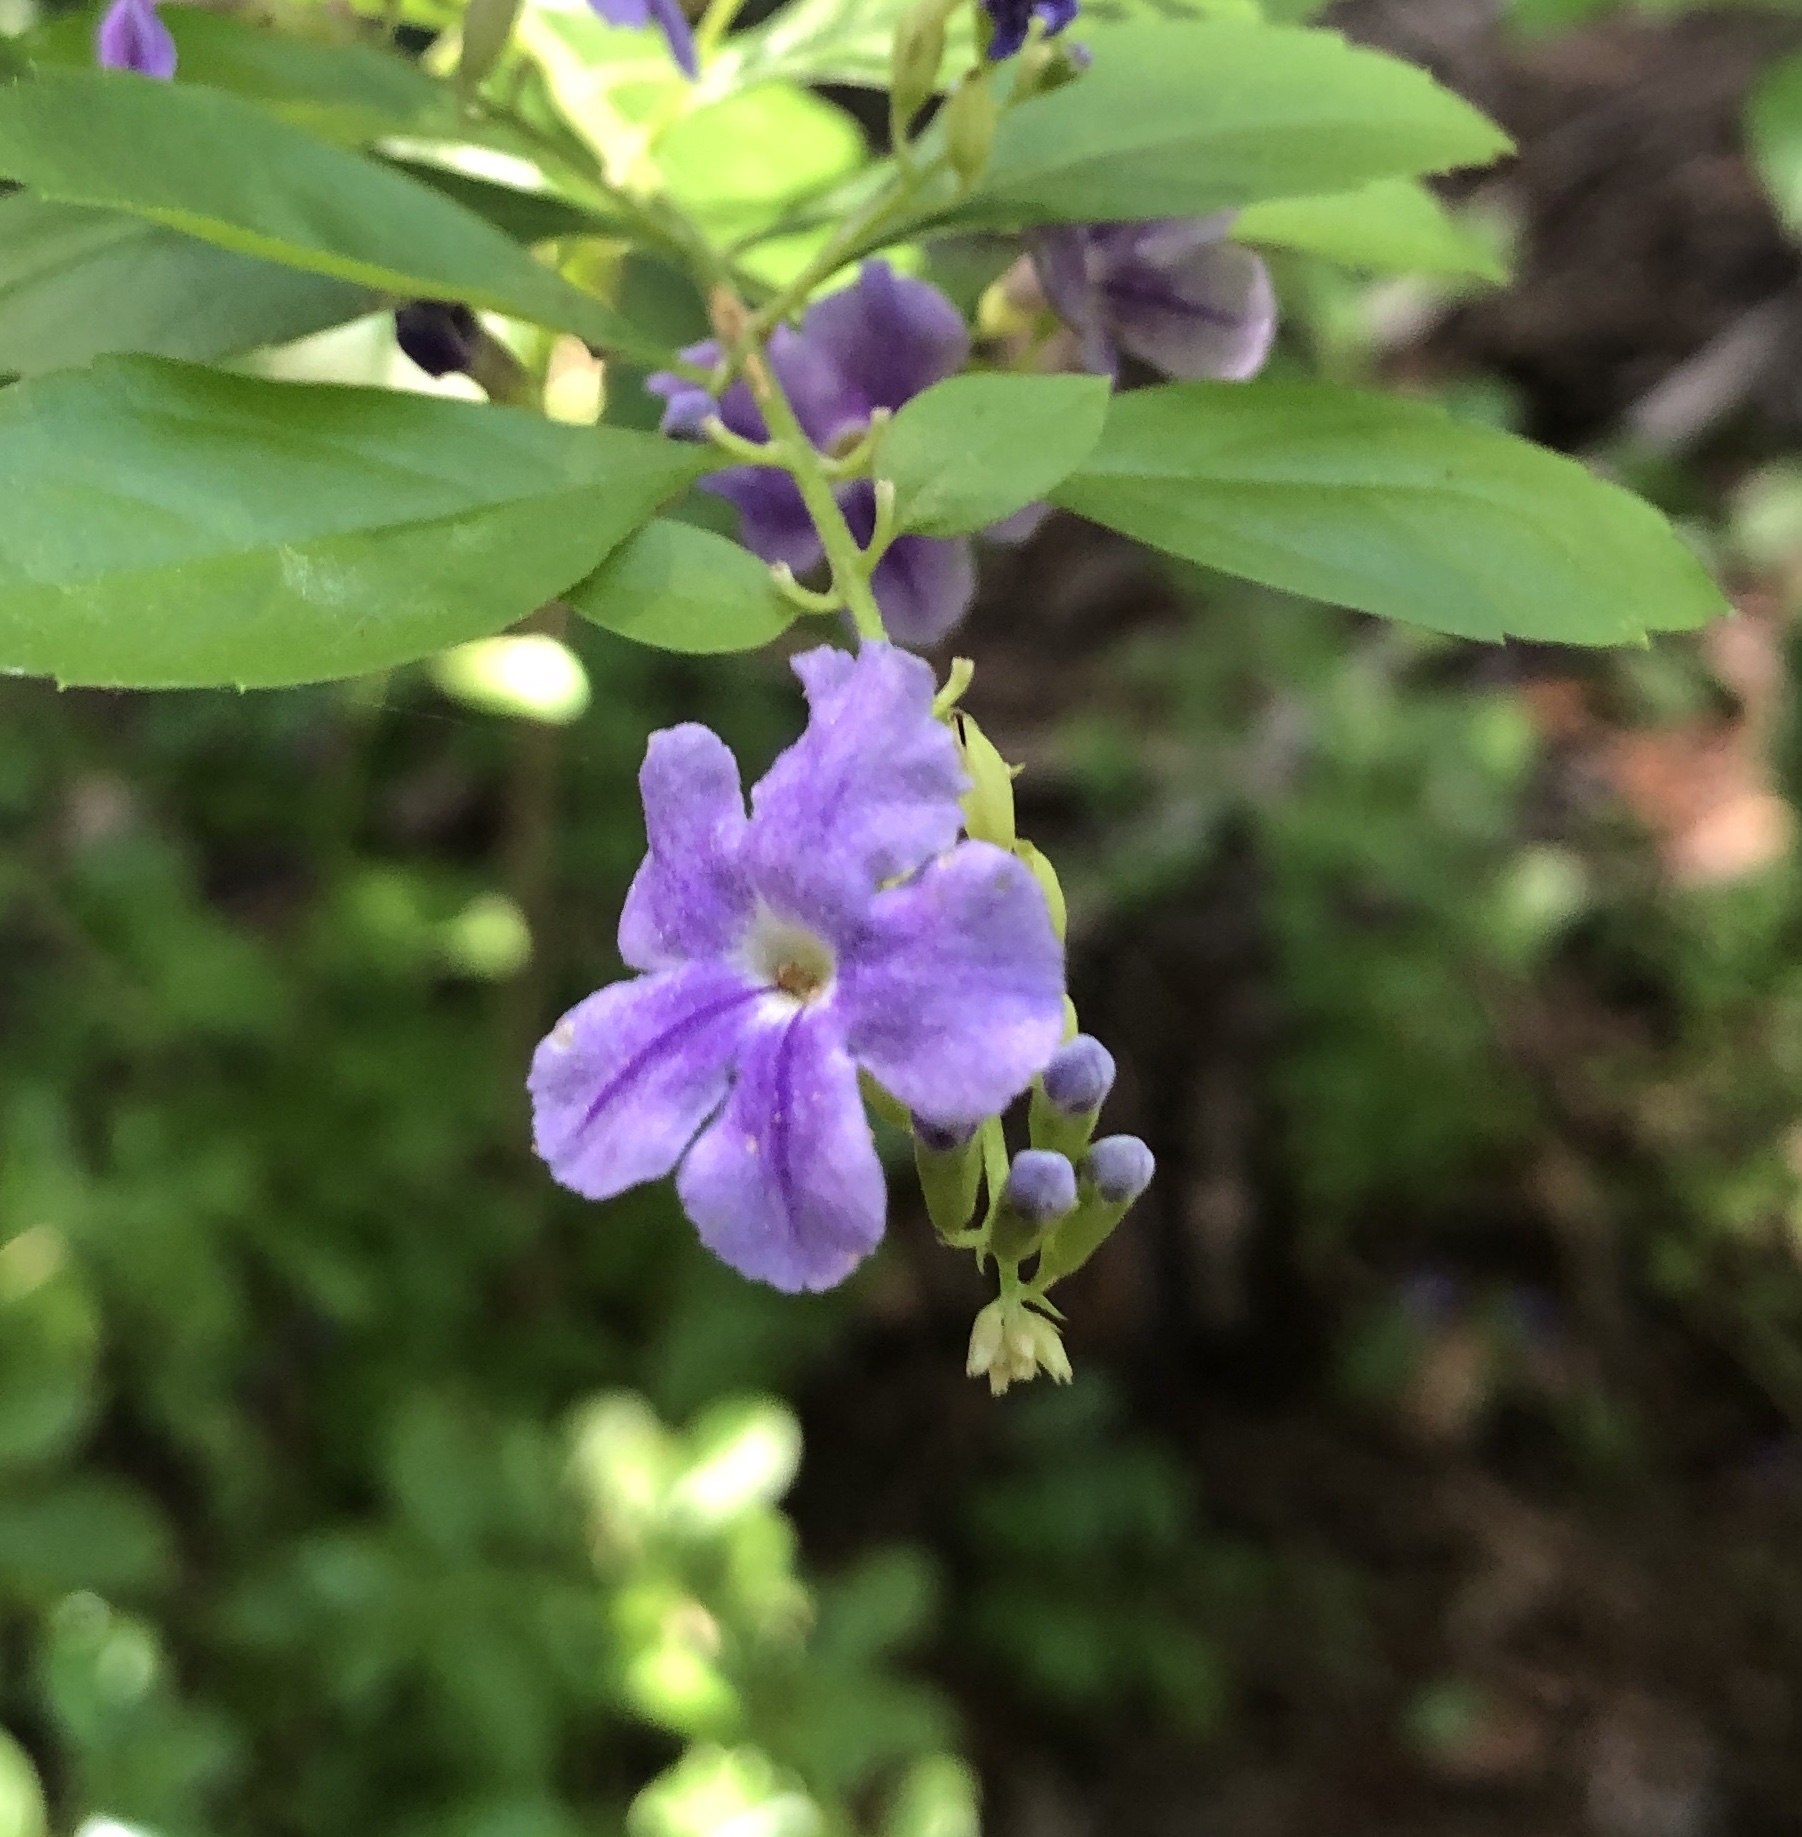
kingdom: Plantae
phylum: Tracheophyta
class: Magnoliopsida
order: Lamiales
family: Verbenaceae
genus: Duranta
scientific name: Duranta erecta
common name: Golden dewdrops
